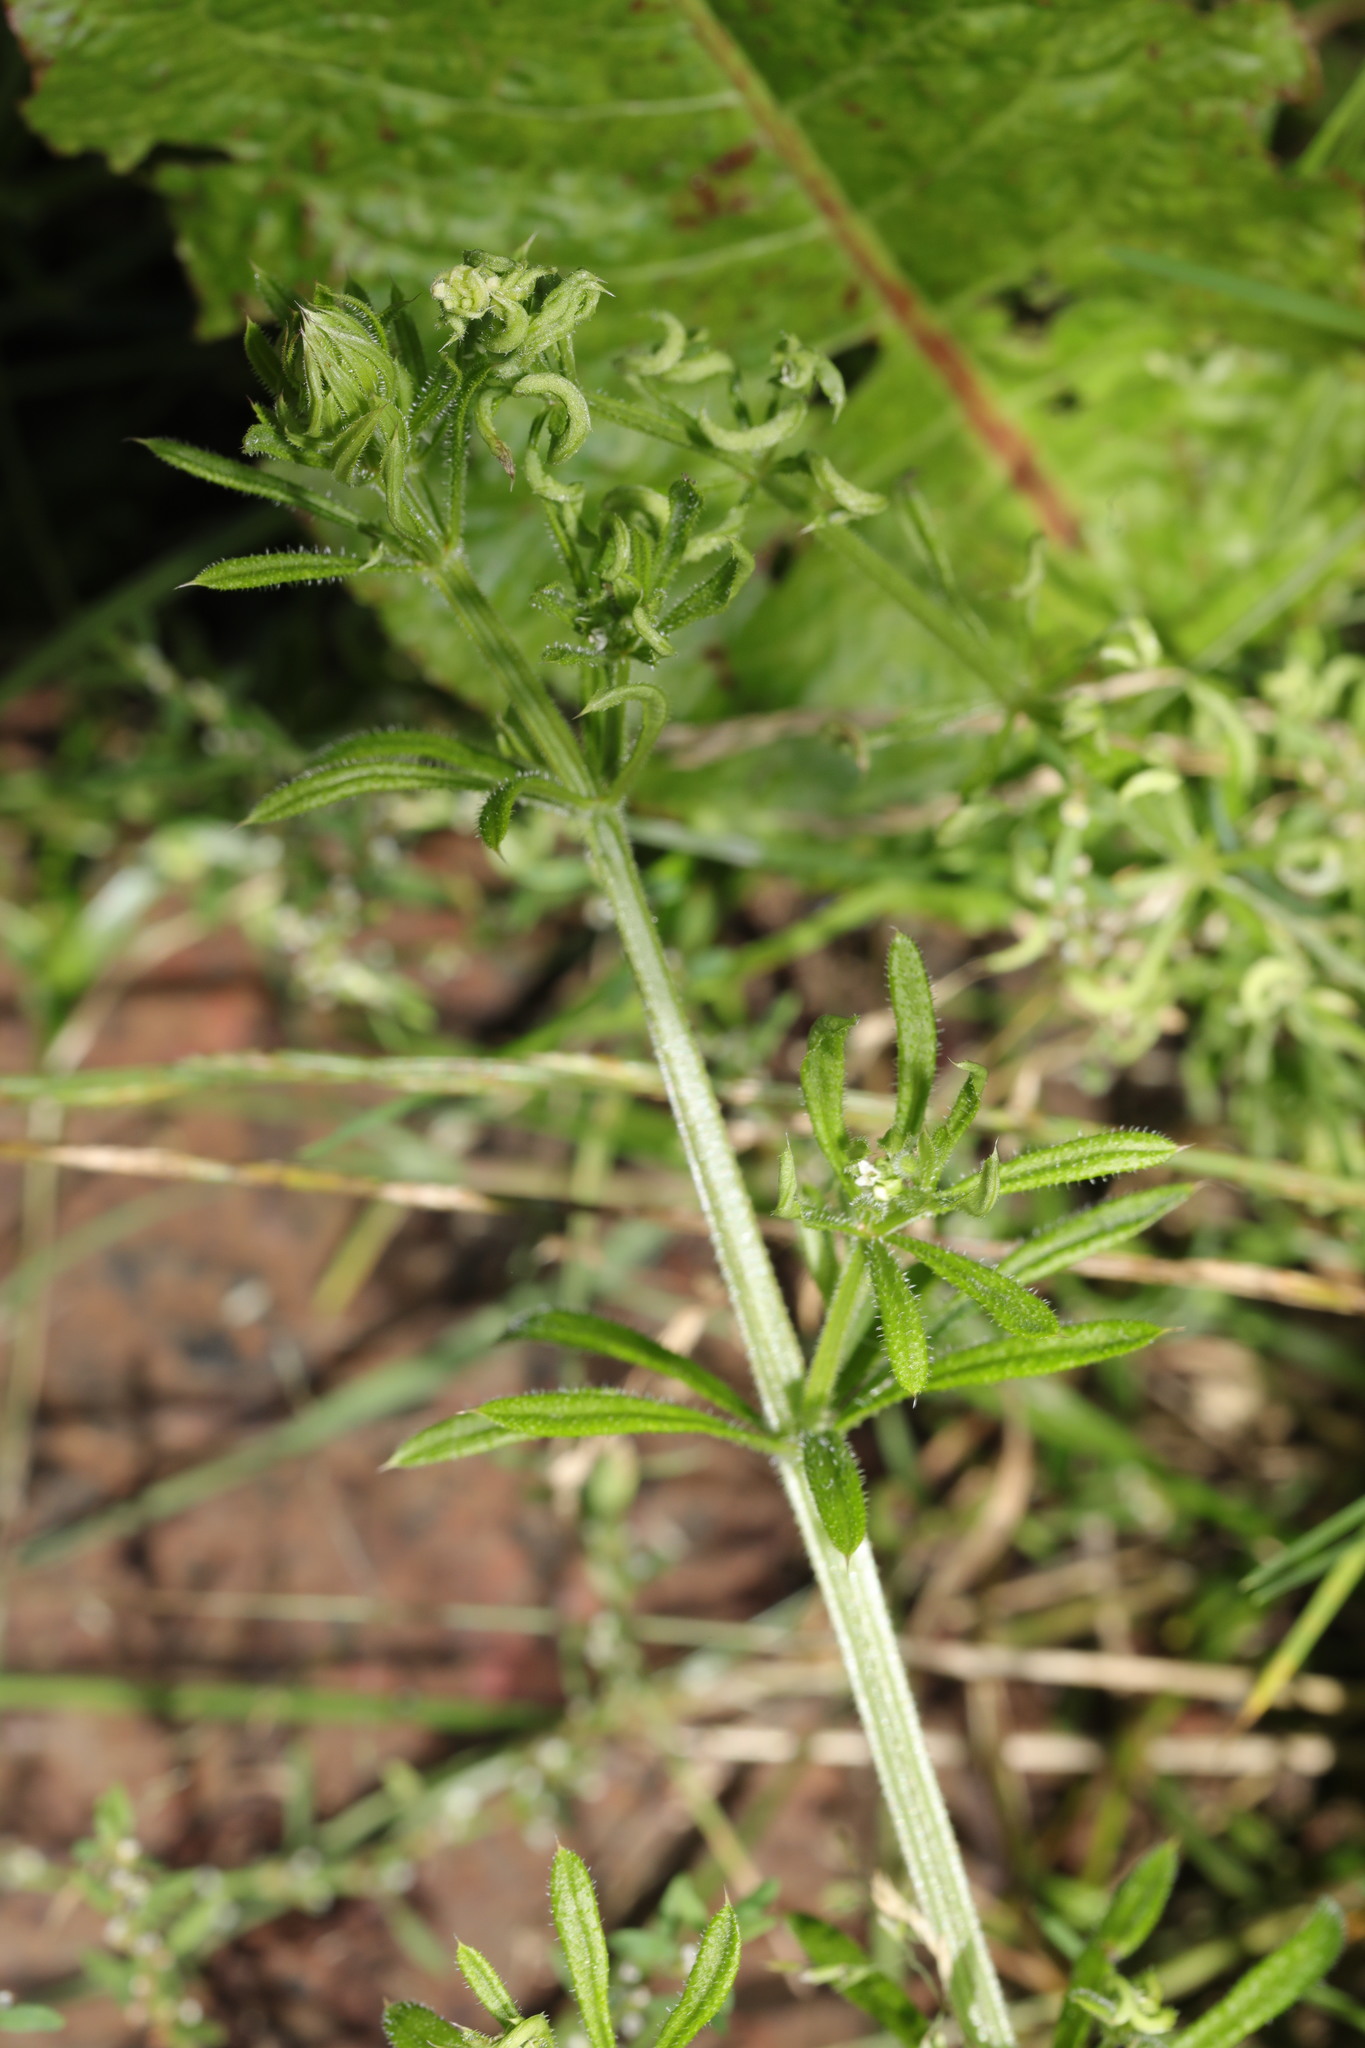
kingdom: Plantae
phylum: Tracheophyta
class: Magnoliopsida
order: Gentianales
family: Rubiaceae
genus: Galium
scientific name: Galium aparine
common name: Cleavers
